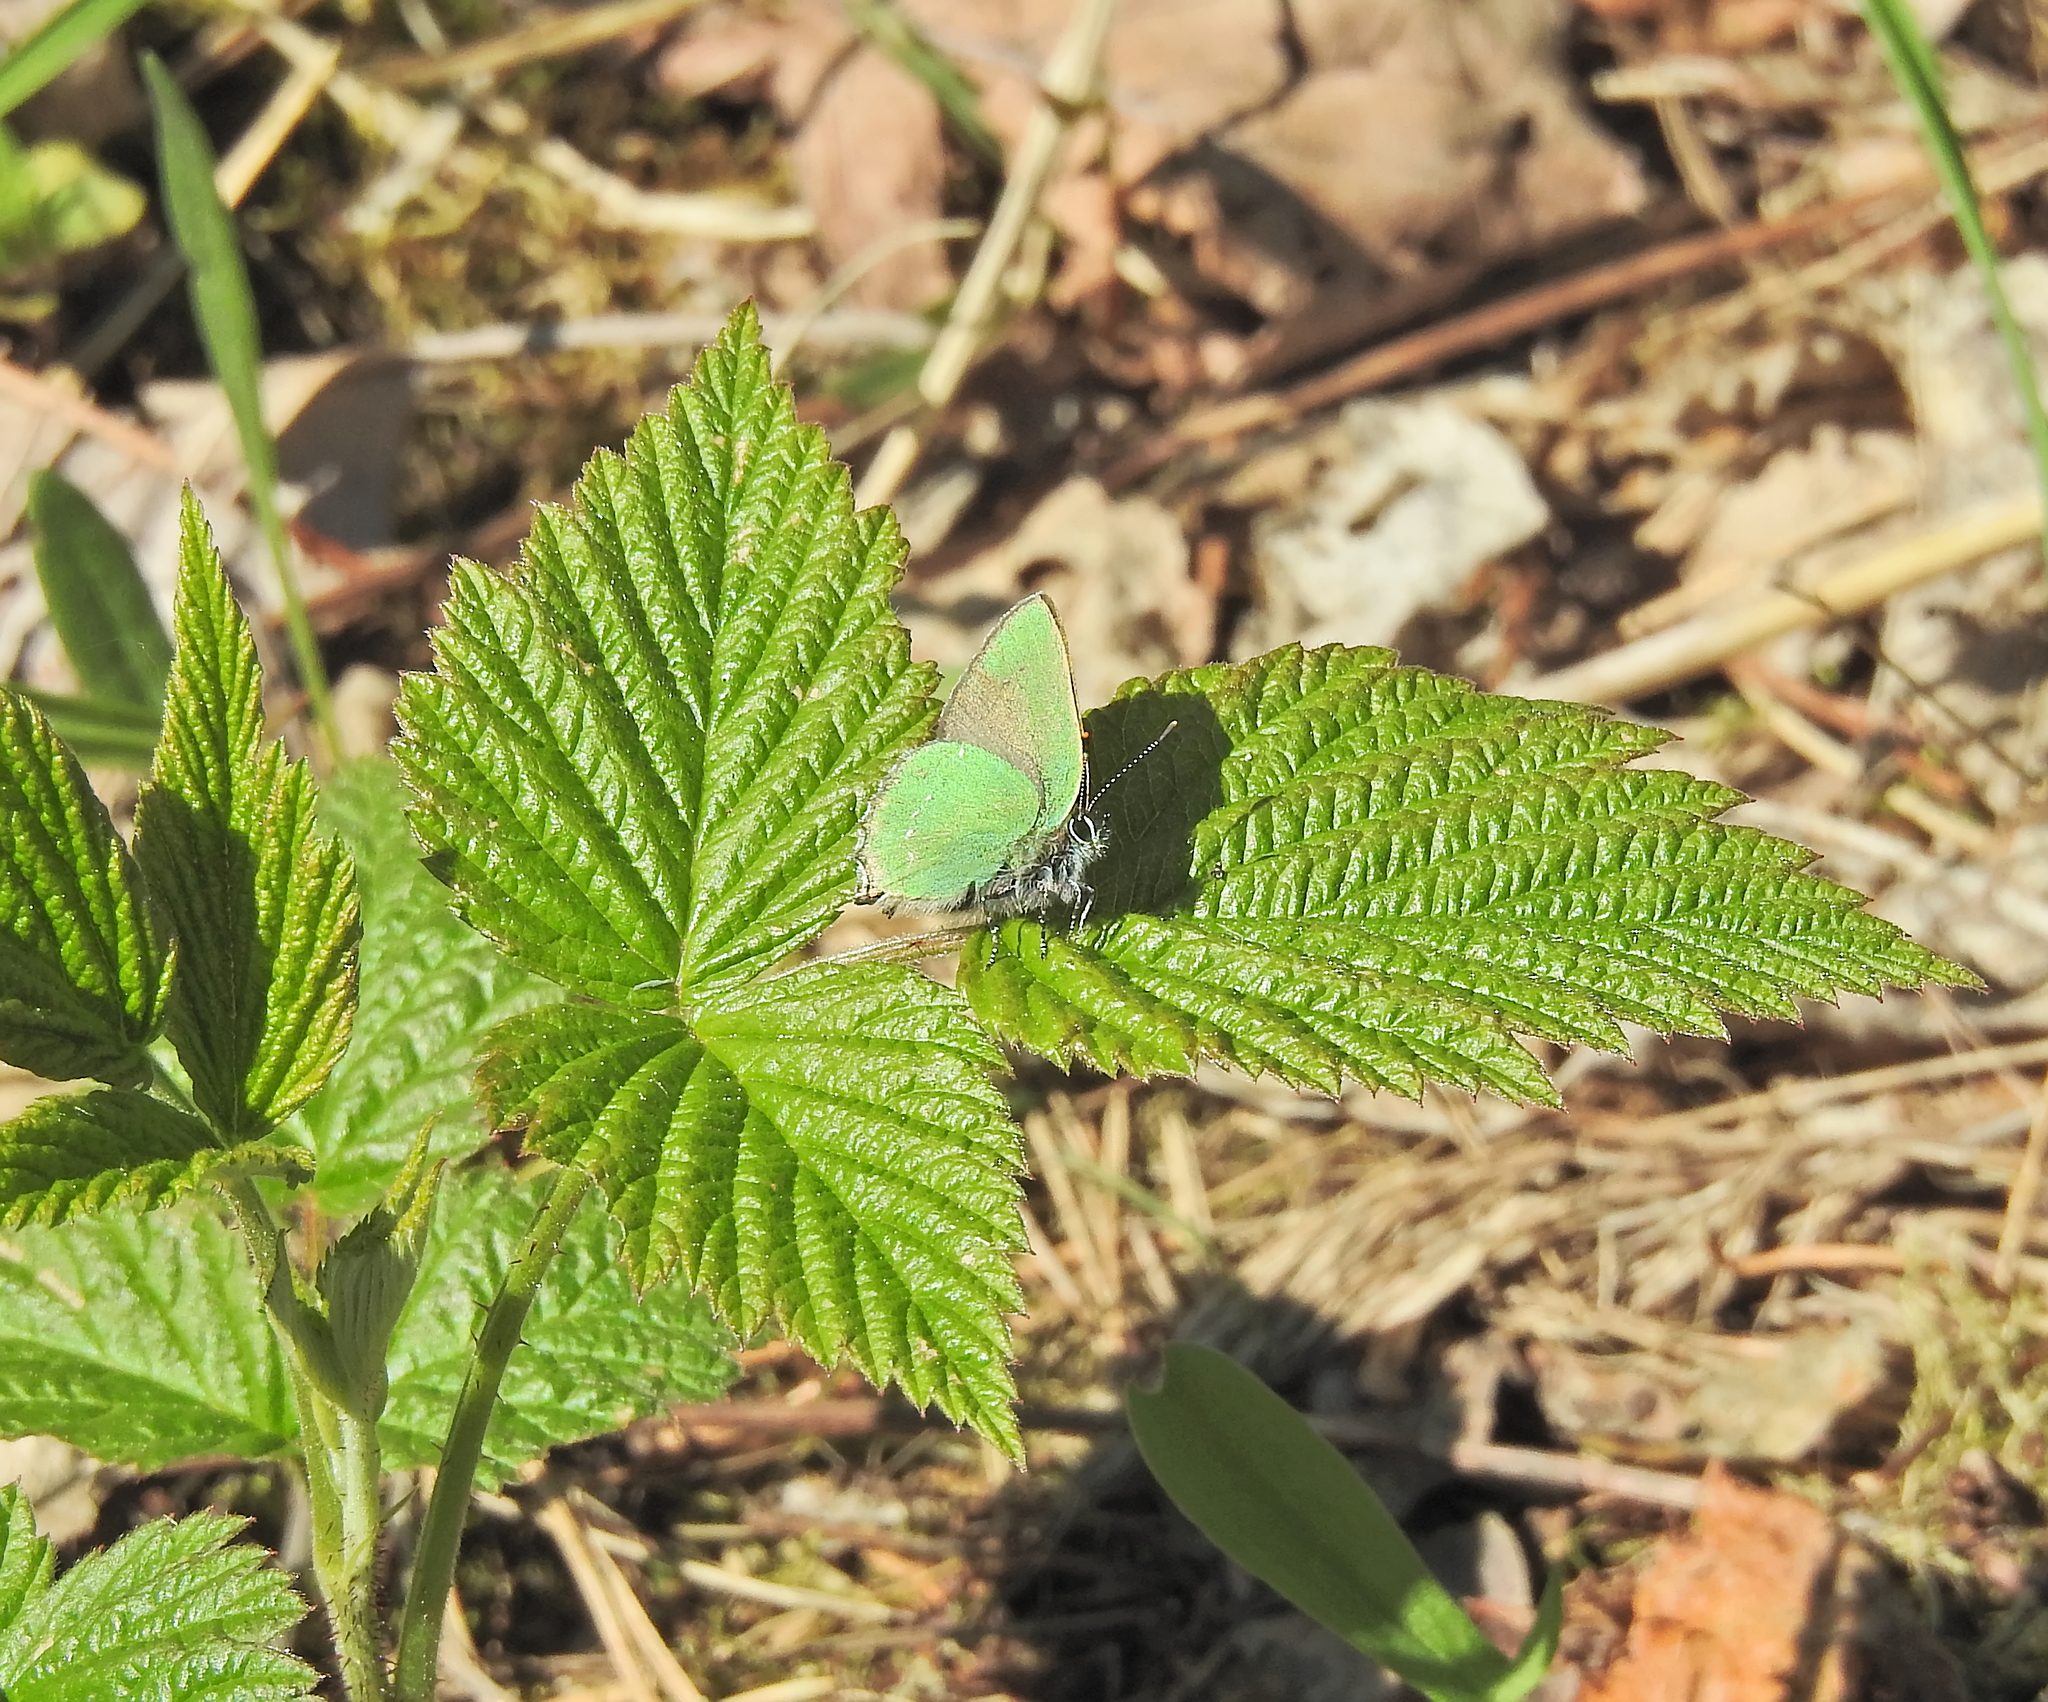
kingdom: Animalia
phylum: Arthropoda
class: Insecta
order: Lepidoptera
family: Lycaenidae
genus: Callophrys
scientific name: Callophrys rubi
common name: Green hairstreak
